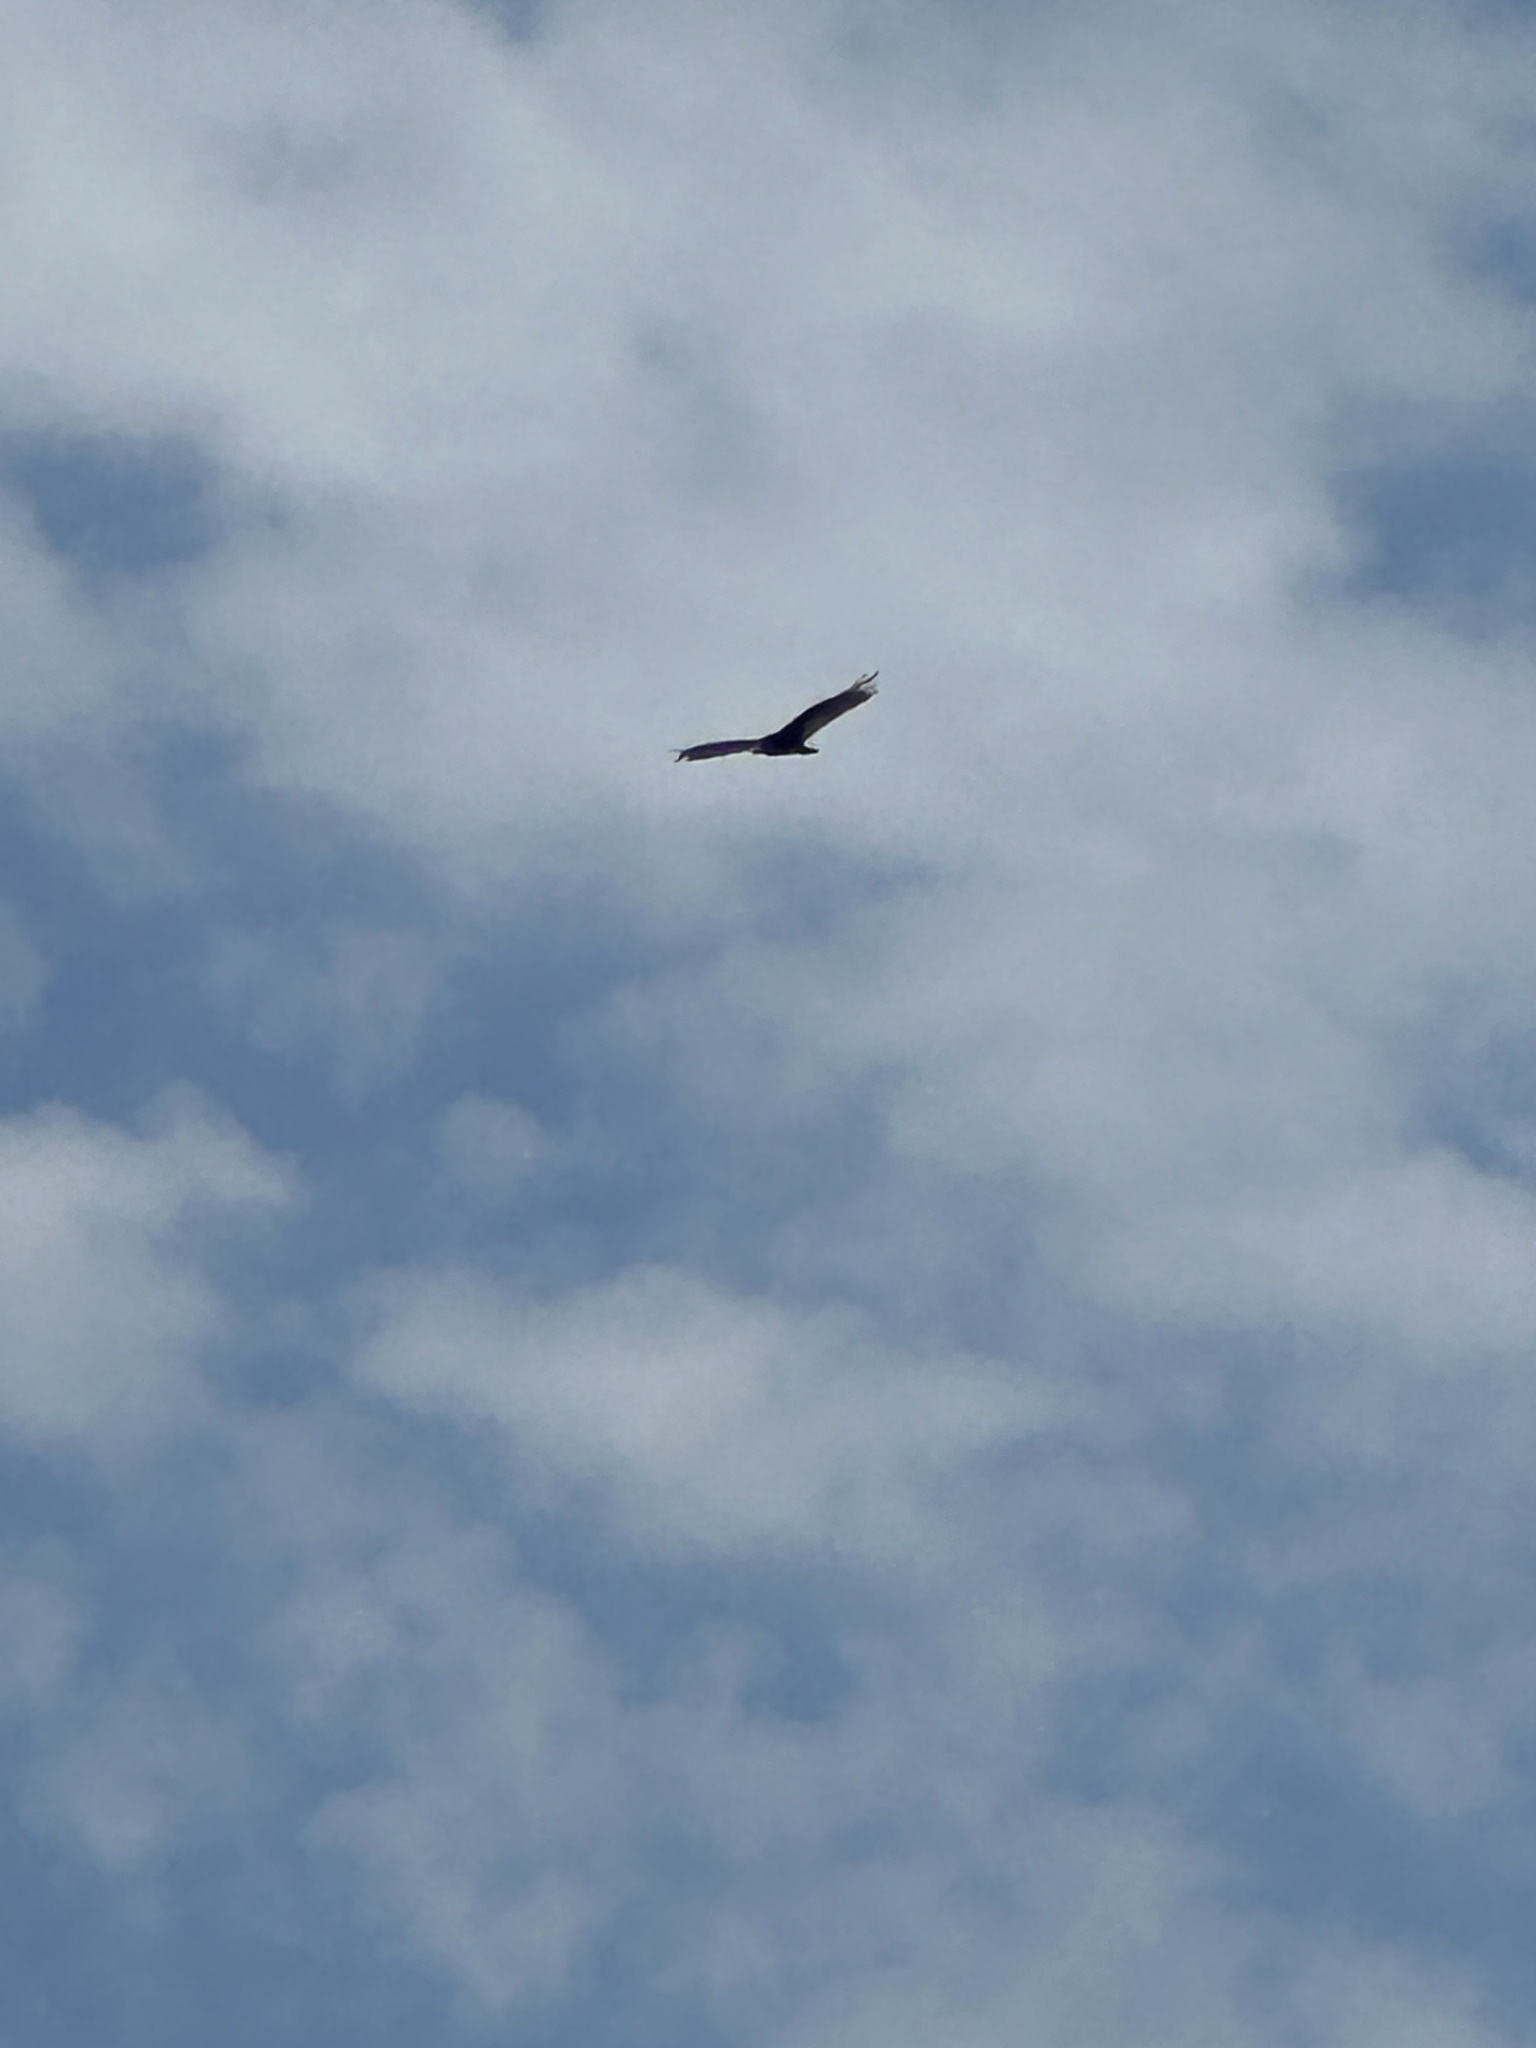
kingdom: Animalia
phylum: Chordata
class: Aves
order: Accipitriformes
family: Cathartidae
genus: Cathartes
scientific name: Cathartes aura
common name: Turkey vulture
